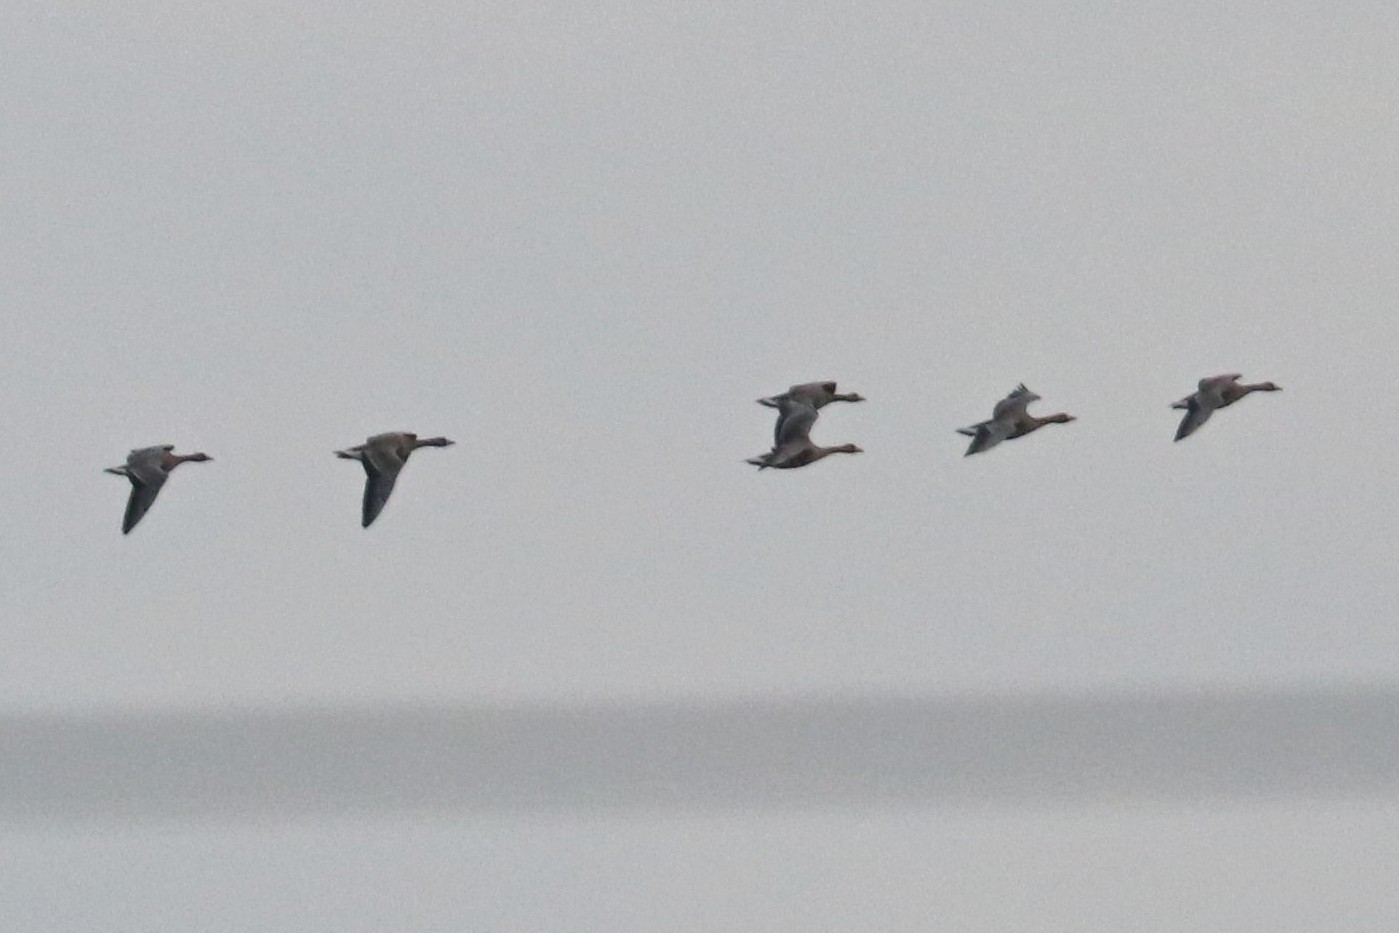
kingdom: Animalia
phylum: Chordata
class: Aves
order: Anseriformes
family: Anatidae
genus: Anser
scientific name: Anser albifrons
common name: Greater white-fronted goose
